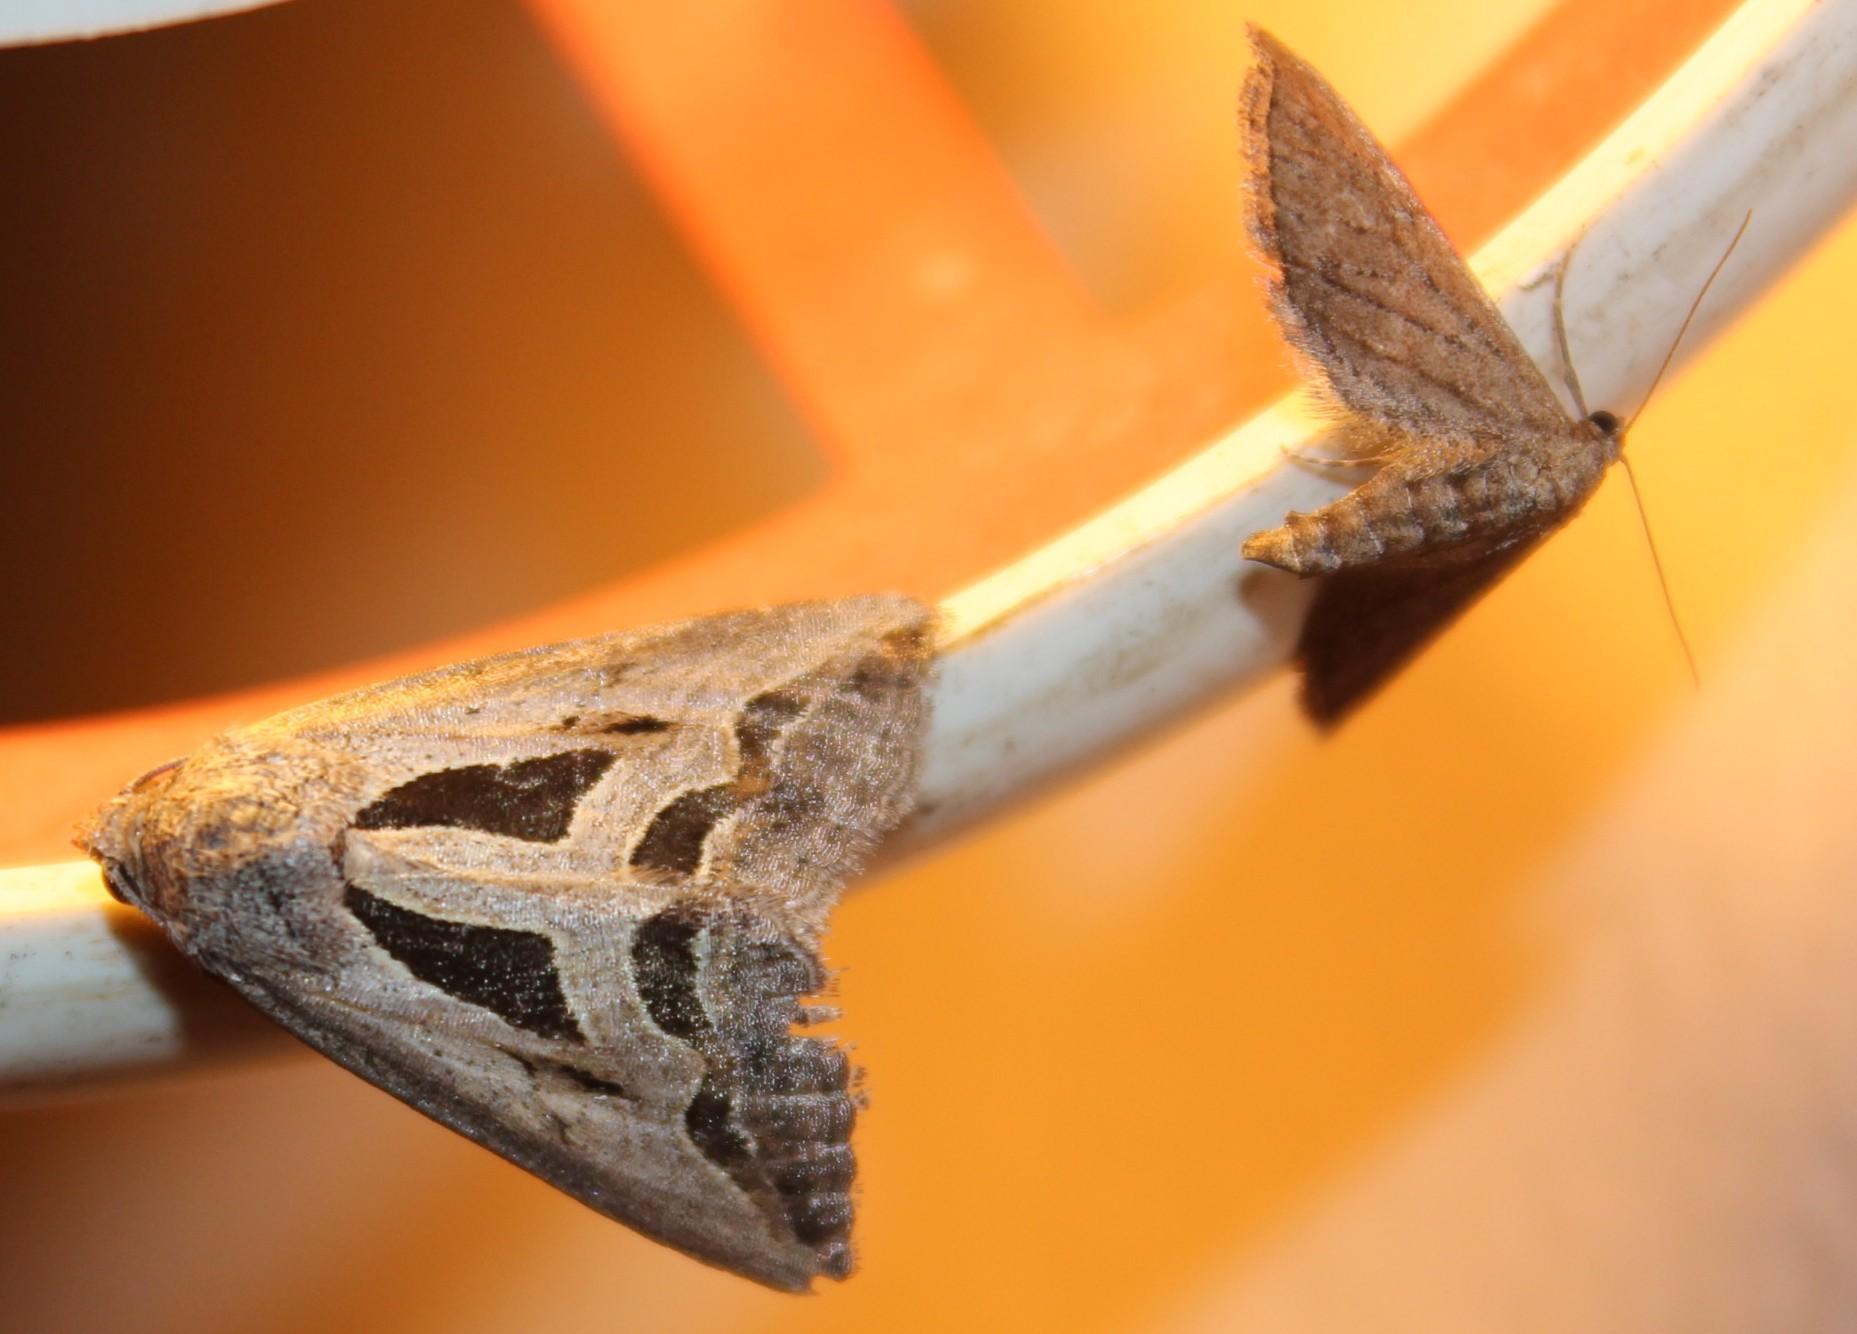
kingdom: Animalia
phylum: Arthropoda
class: Insecta
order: Lepidoptera
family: Erebidae
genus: Cuneisigna
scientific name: Cuneisigna obstans
